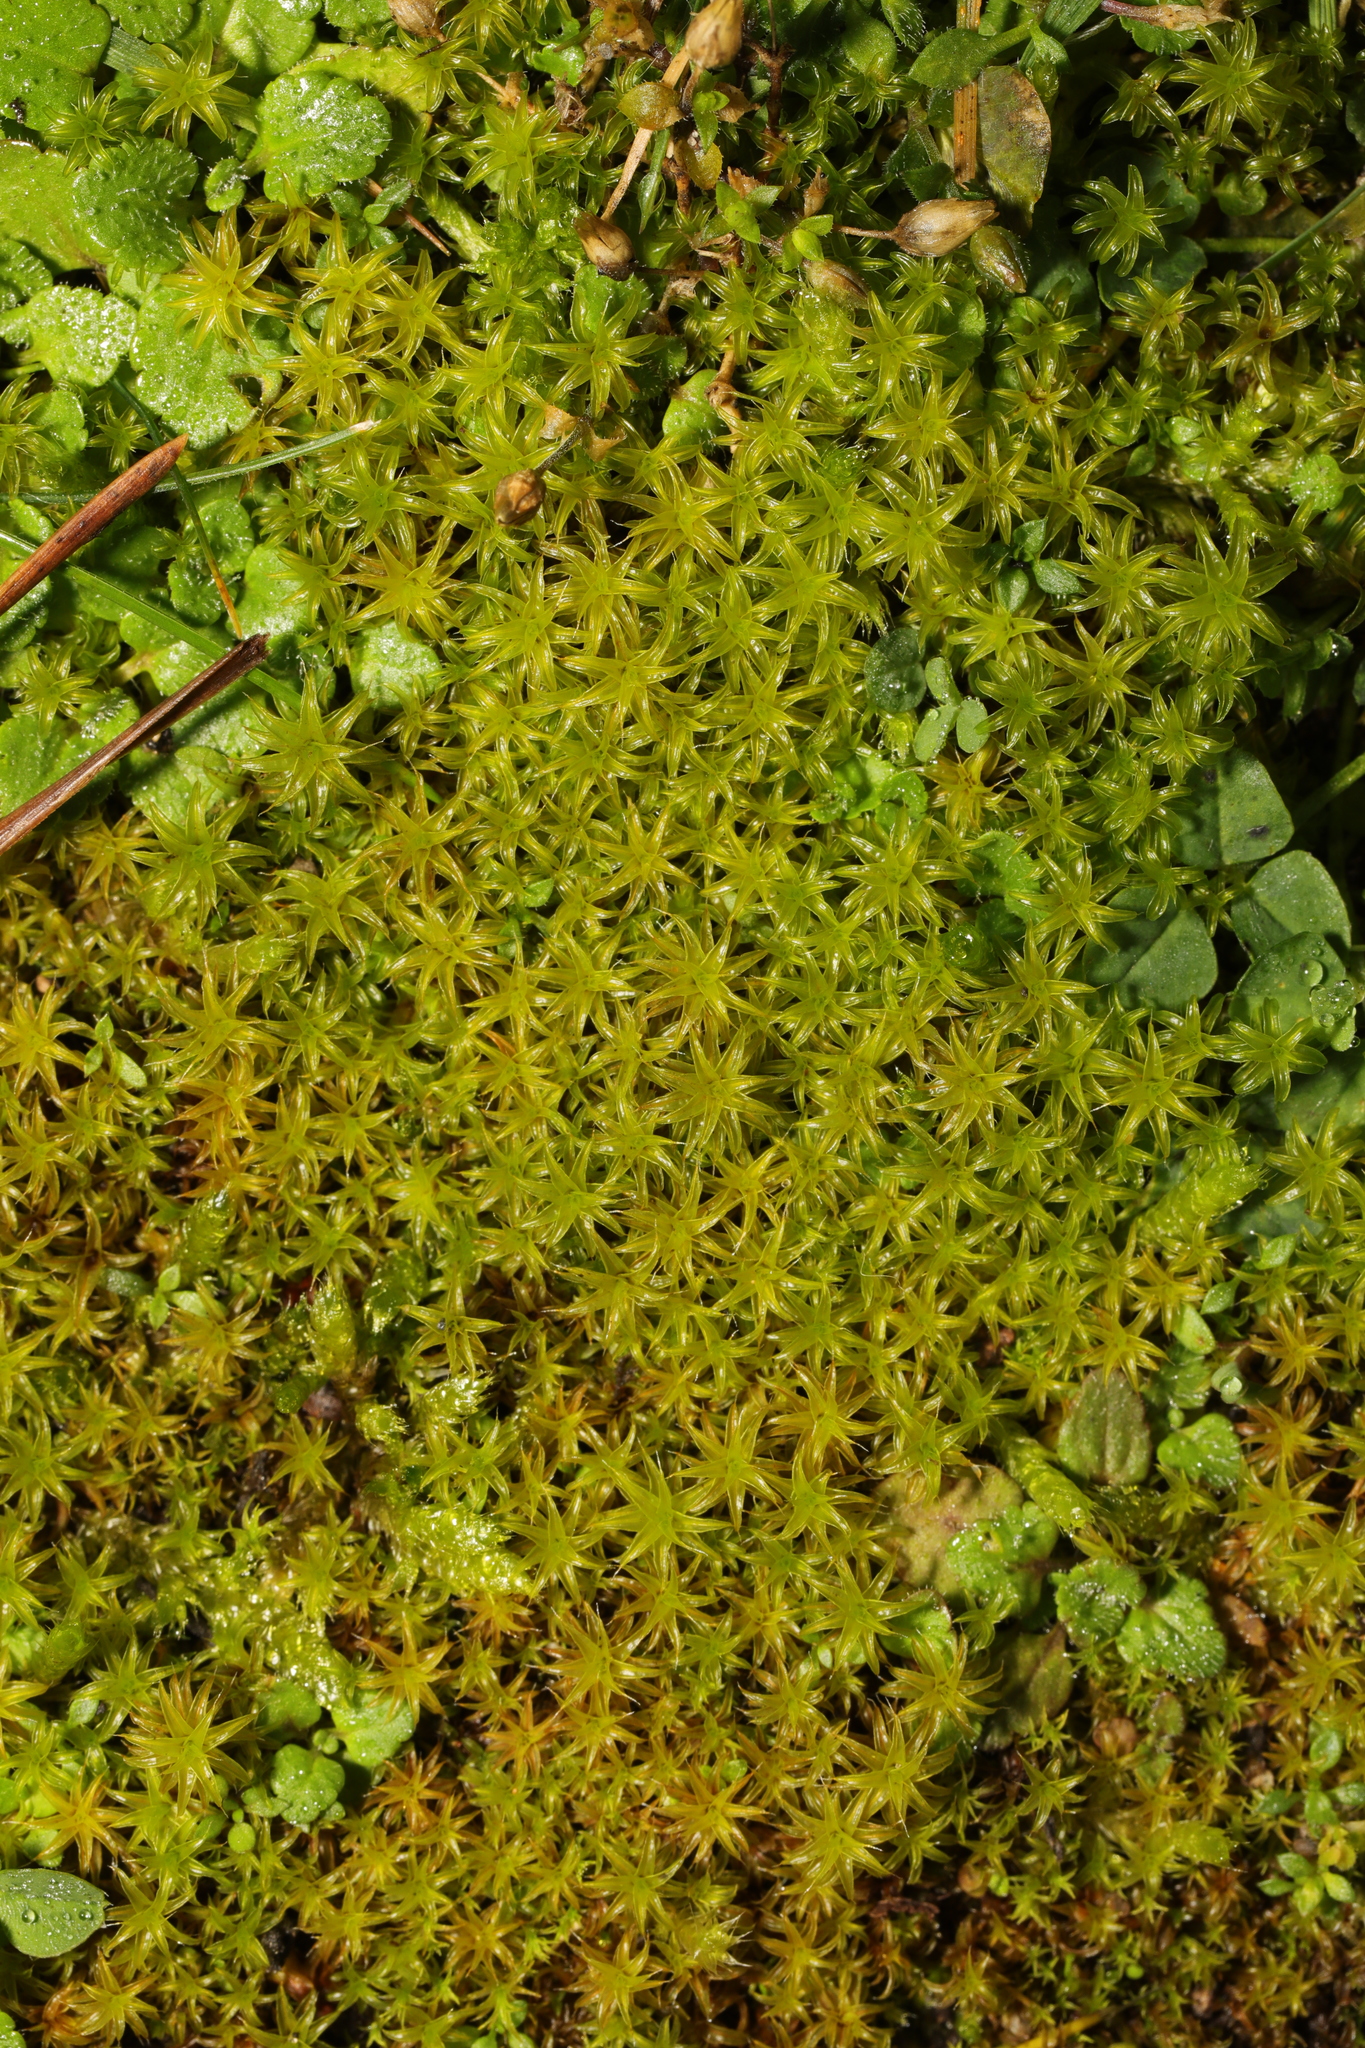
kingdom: Plantae
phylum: Bryophyta
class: Bryopsida
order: Pottiales
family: Pottiaceae
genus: Syntrichia
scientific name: Syntrichia ruralis
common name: Sidewalk screw moss
